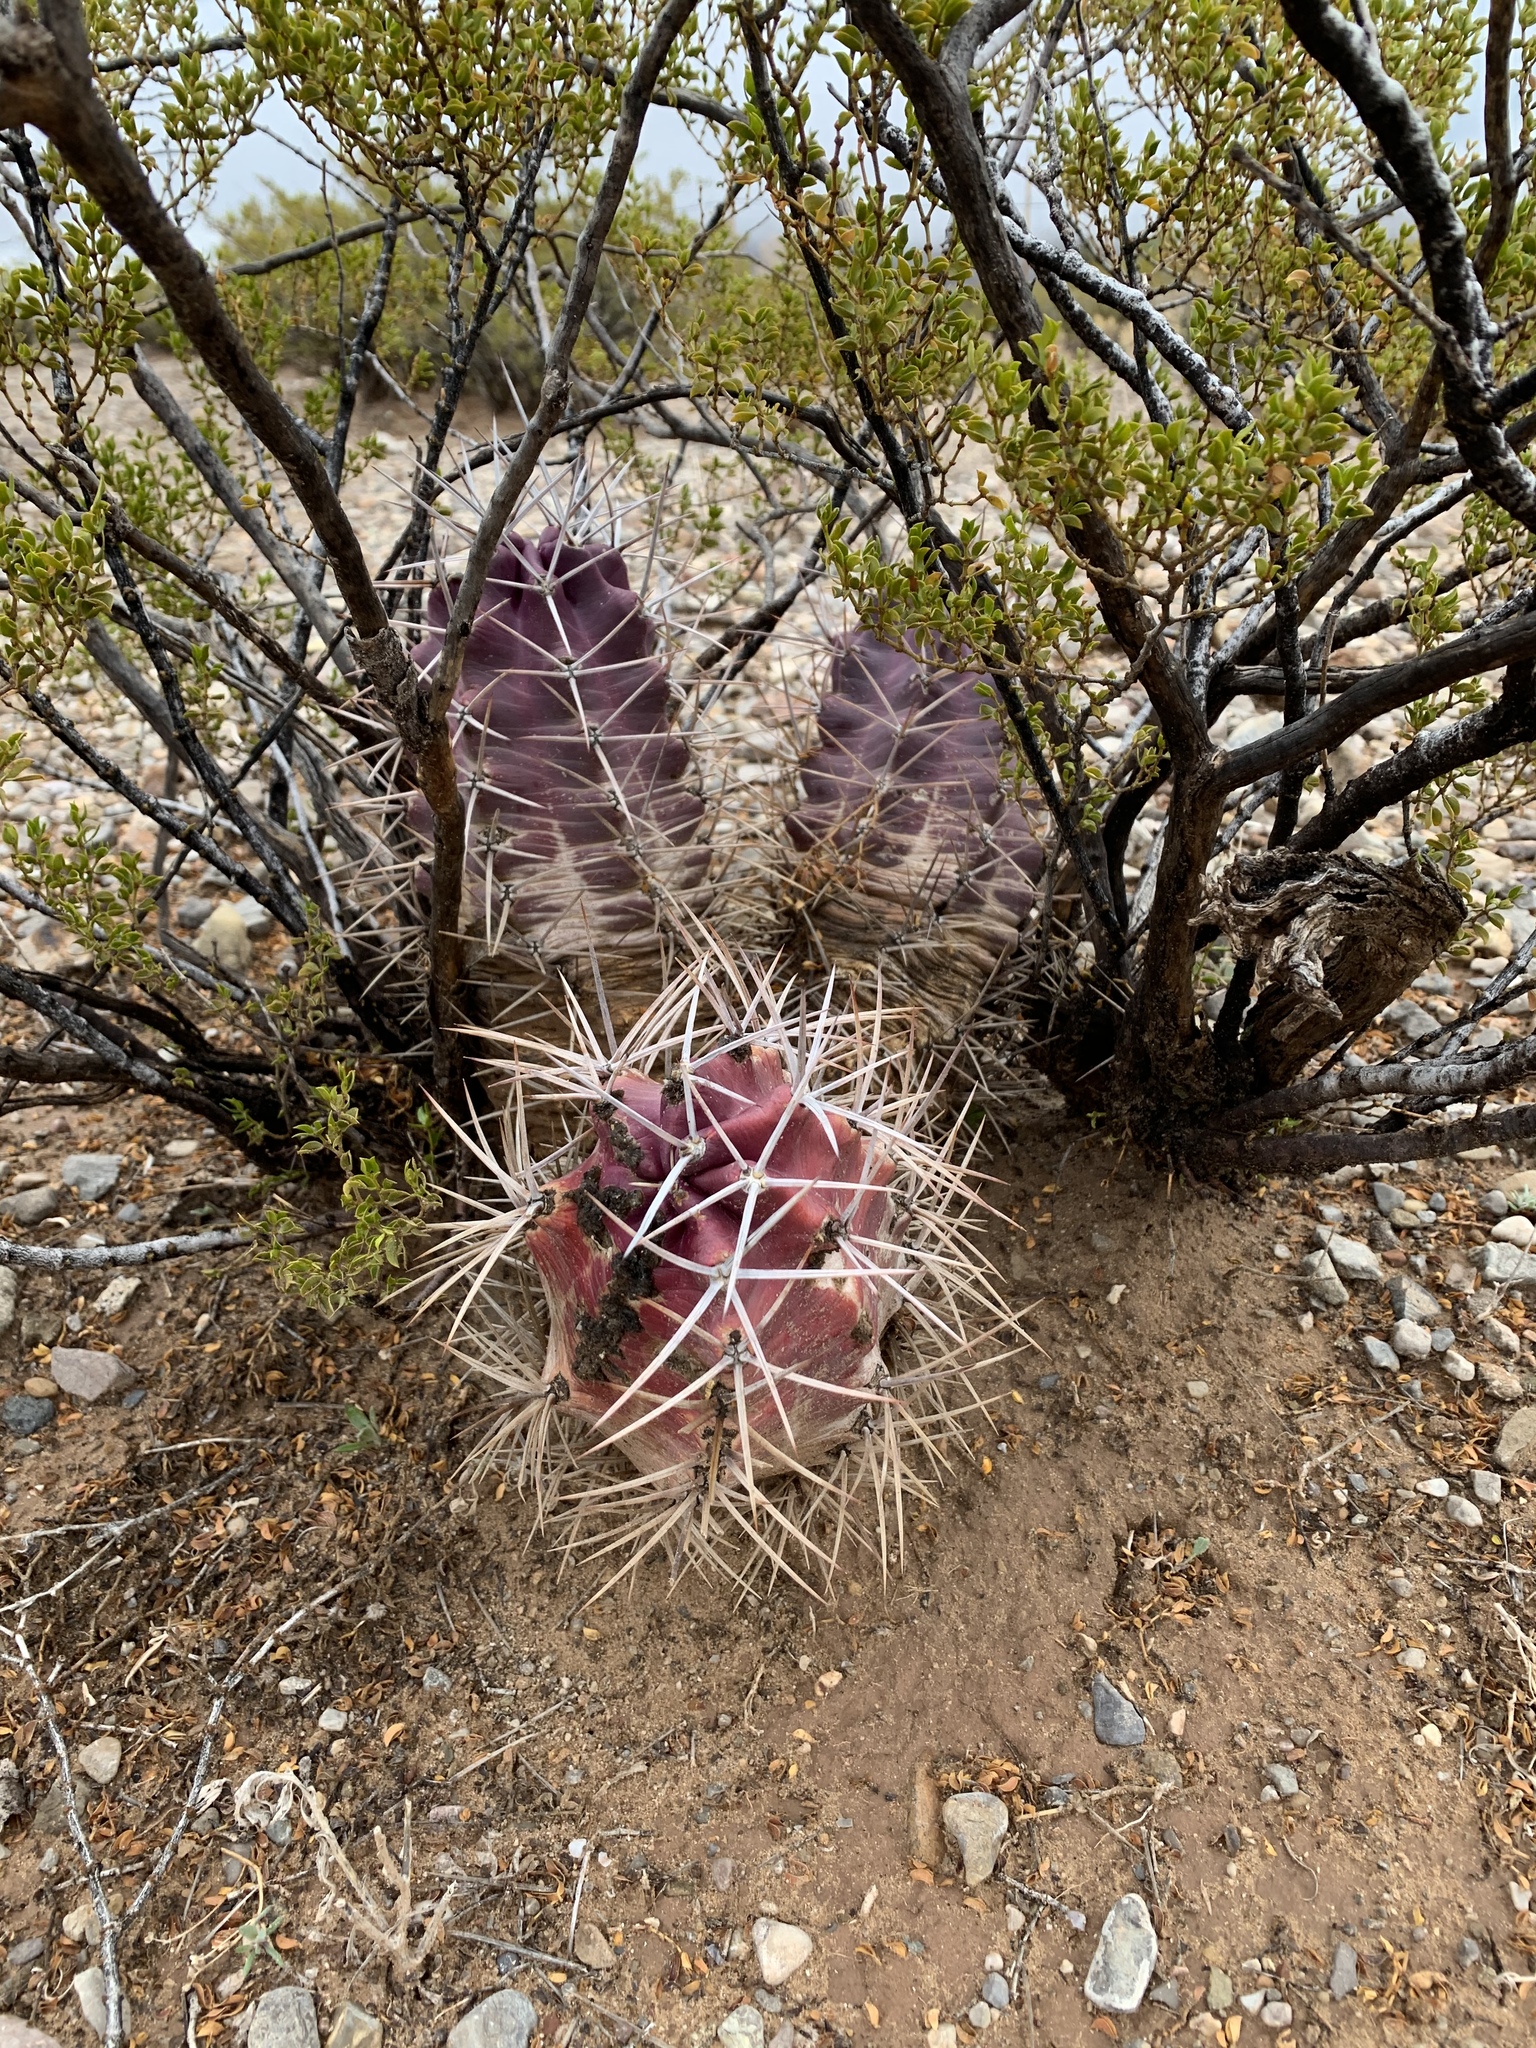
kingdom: Plantae
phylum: Tracheophyta
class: Magnoliopsida
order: Caryophyllales
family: Cactaceae
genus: Echinocereus
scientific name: Echinocereus triglochidiatus
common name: Claretcup hedgehog
